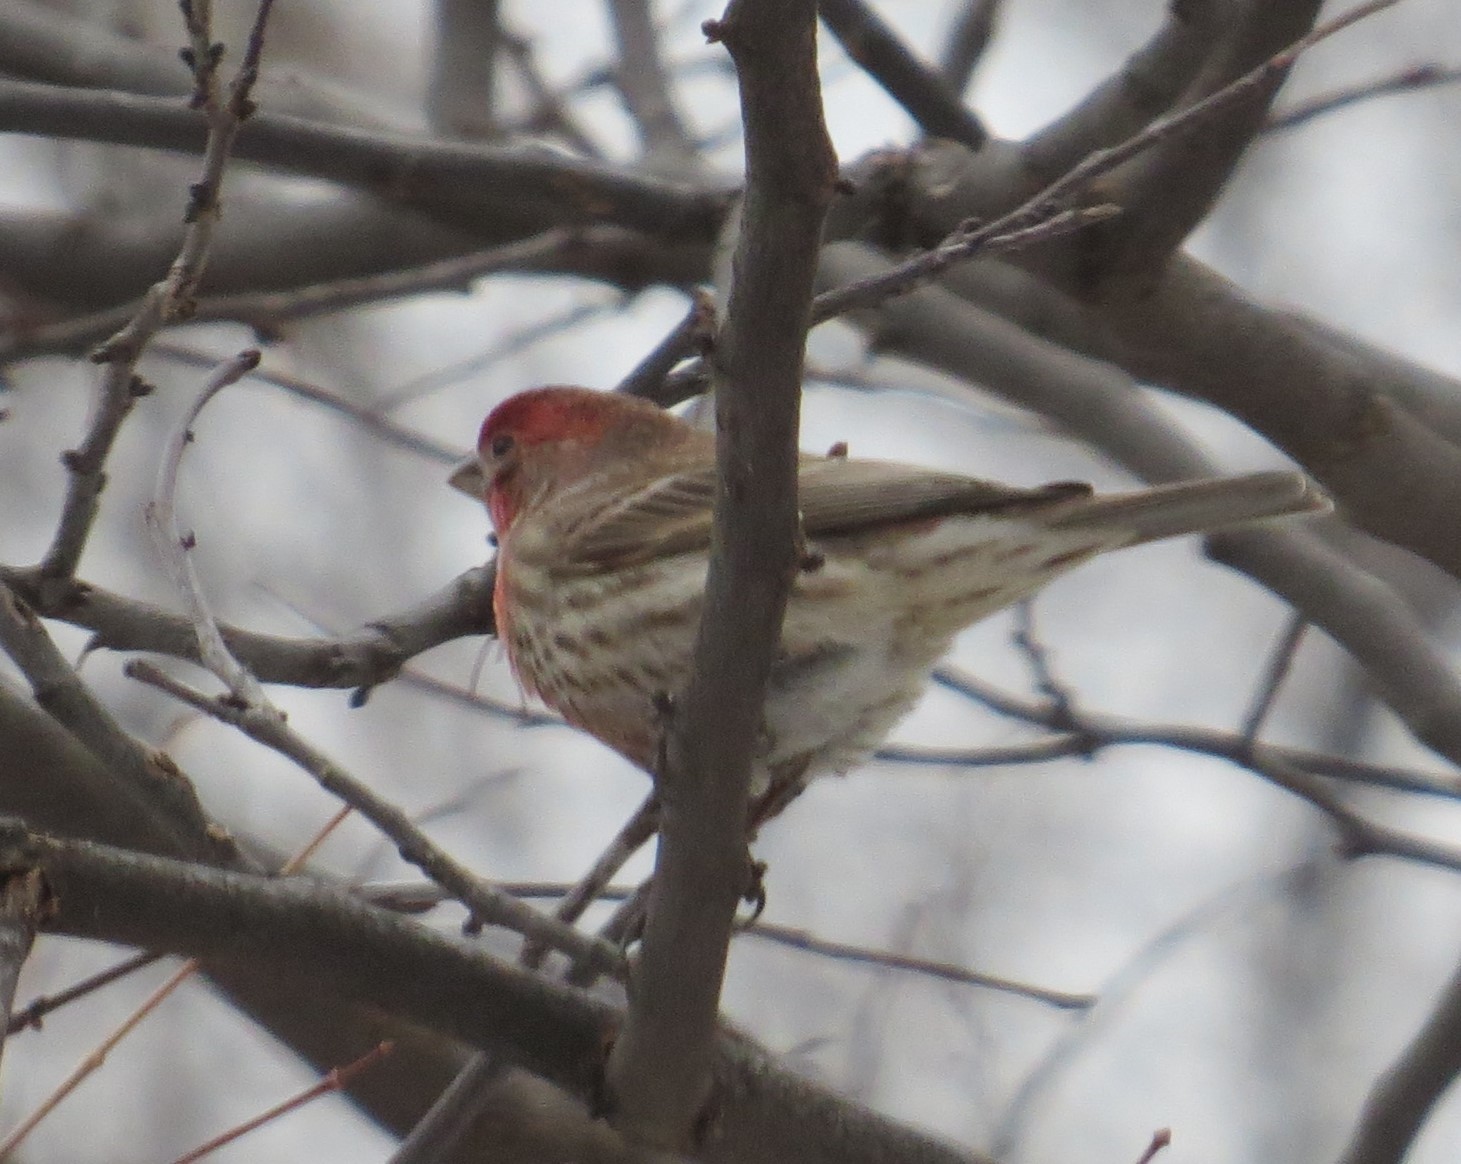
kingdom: Animalia
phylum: Chordata
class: Aves
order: Passeriformes
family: Fringillidae
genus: Haemorhous
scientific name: Haemorhous mexicanus
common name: House finch
